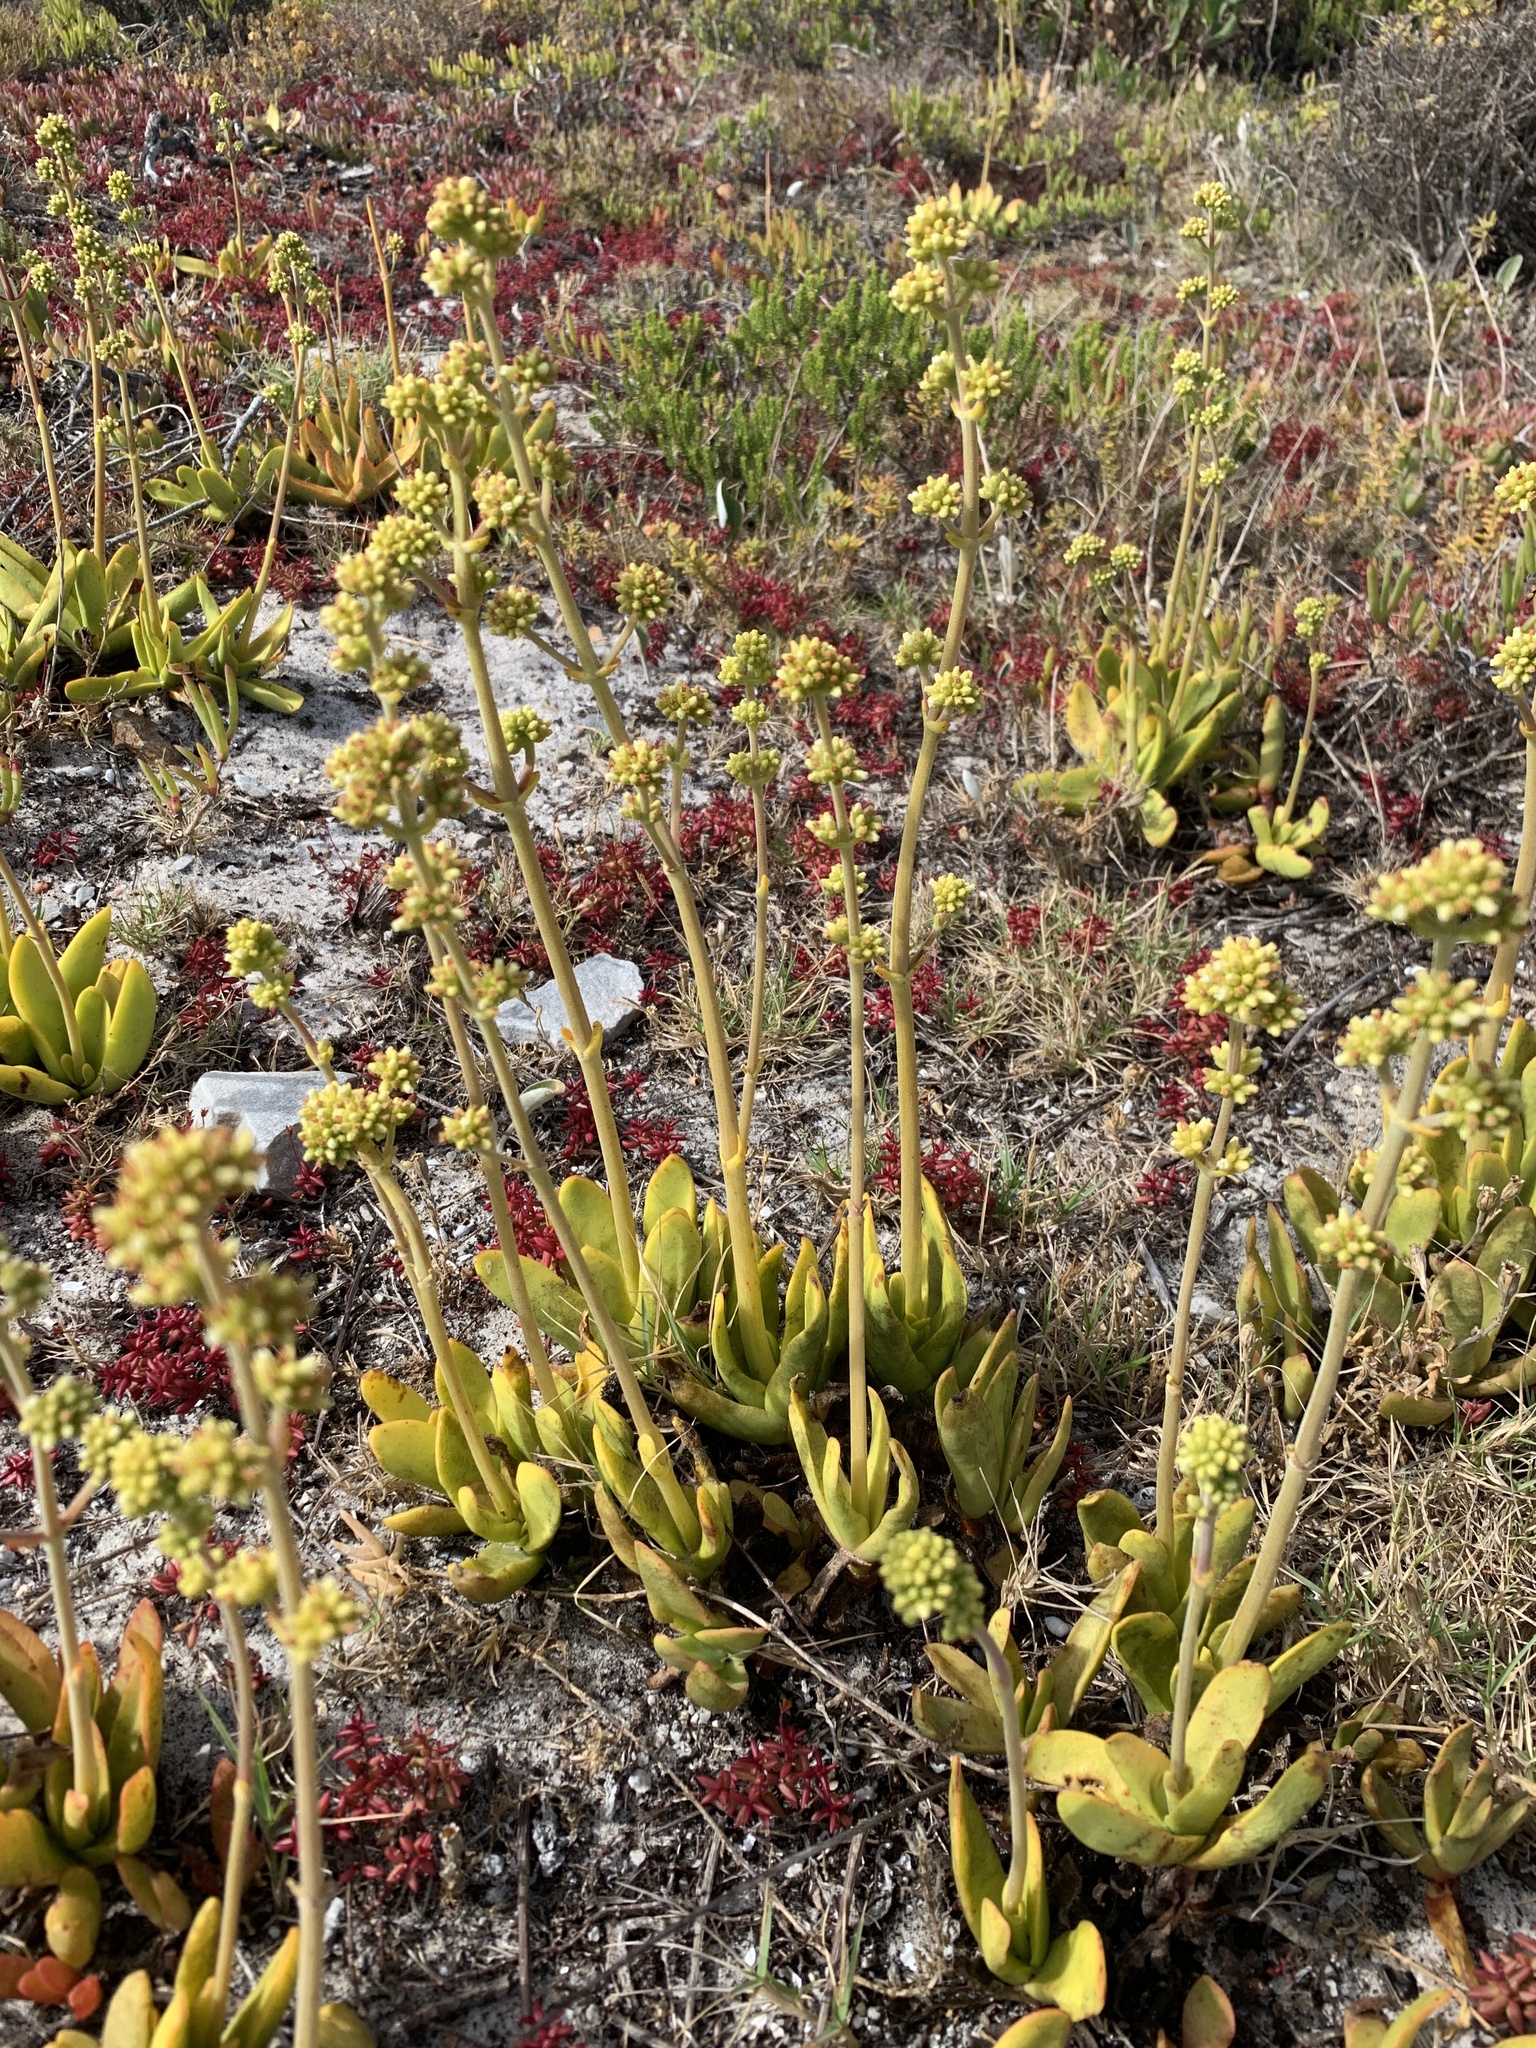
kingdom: Plantae
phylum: Tracheophyta
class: Magnoliopsida
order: Saxifragales
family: Crassulaceae
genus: Crassula
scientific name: Crassula nudicaulis
